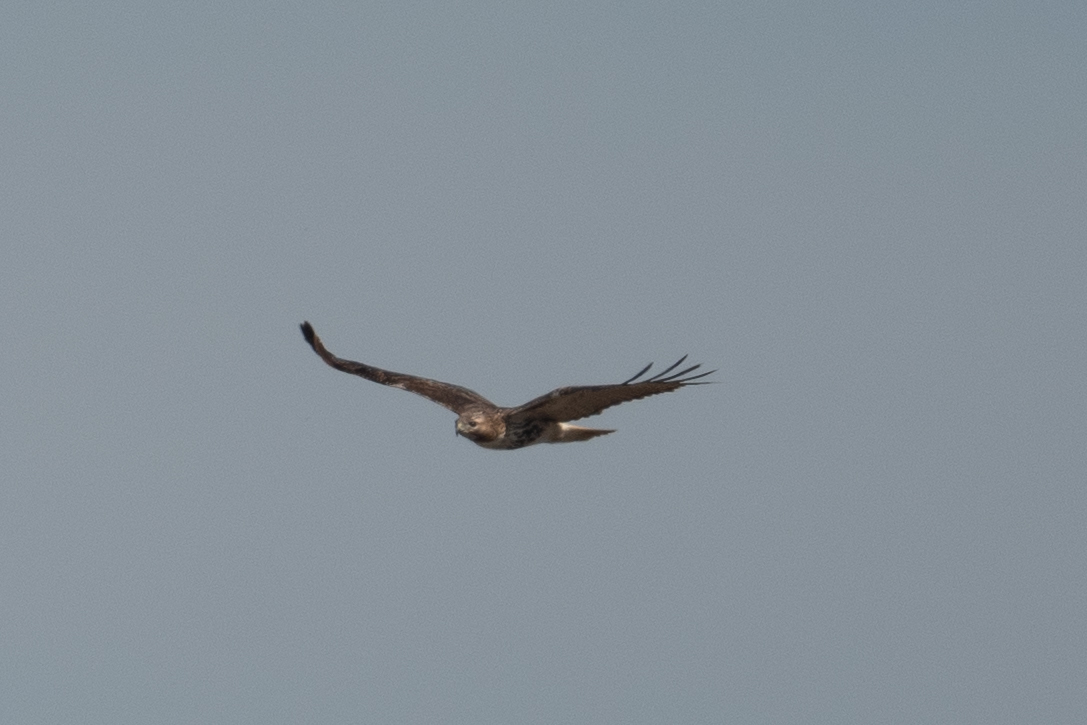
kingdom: Animalia
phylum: Chordata
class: Aves
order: Accipitriformes
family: Accipitridae
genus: Buteo
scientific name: Buteo jamaicensis
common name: Red-tailed hawk
